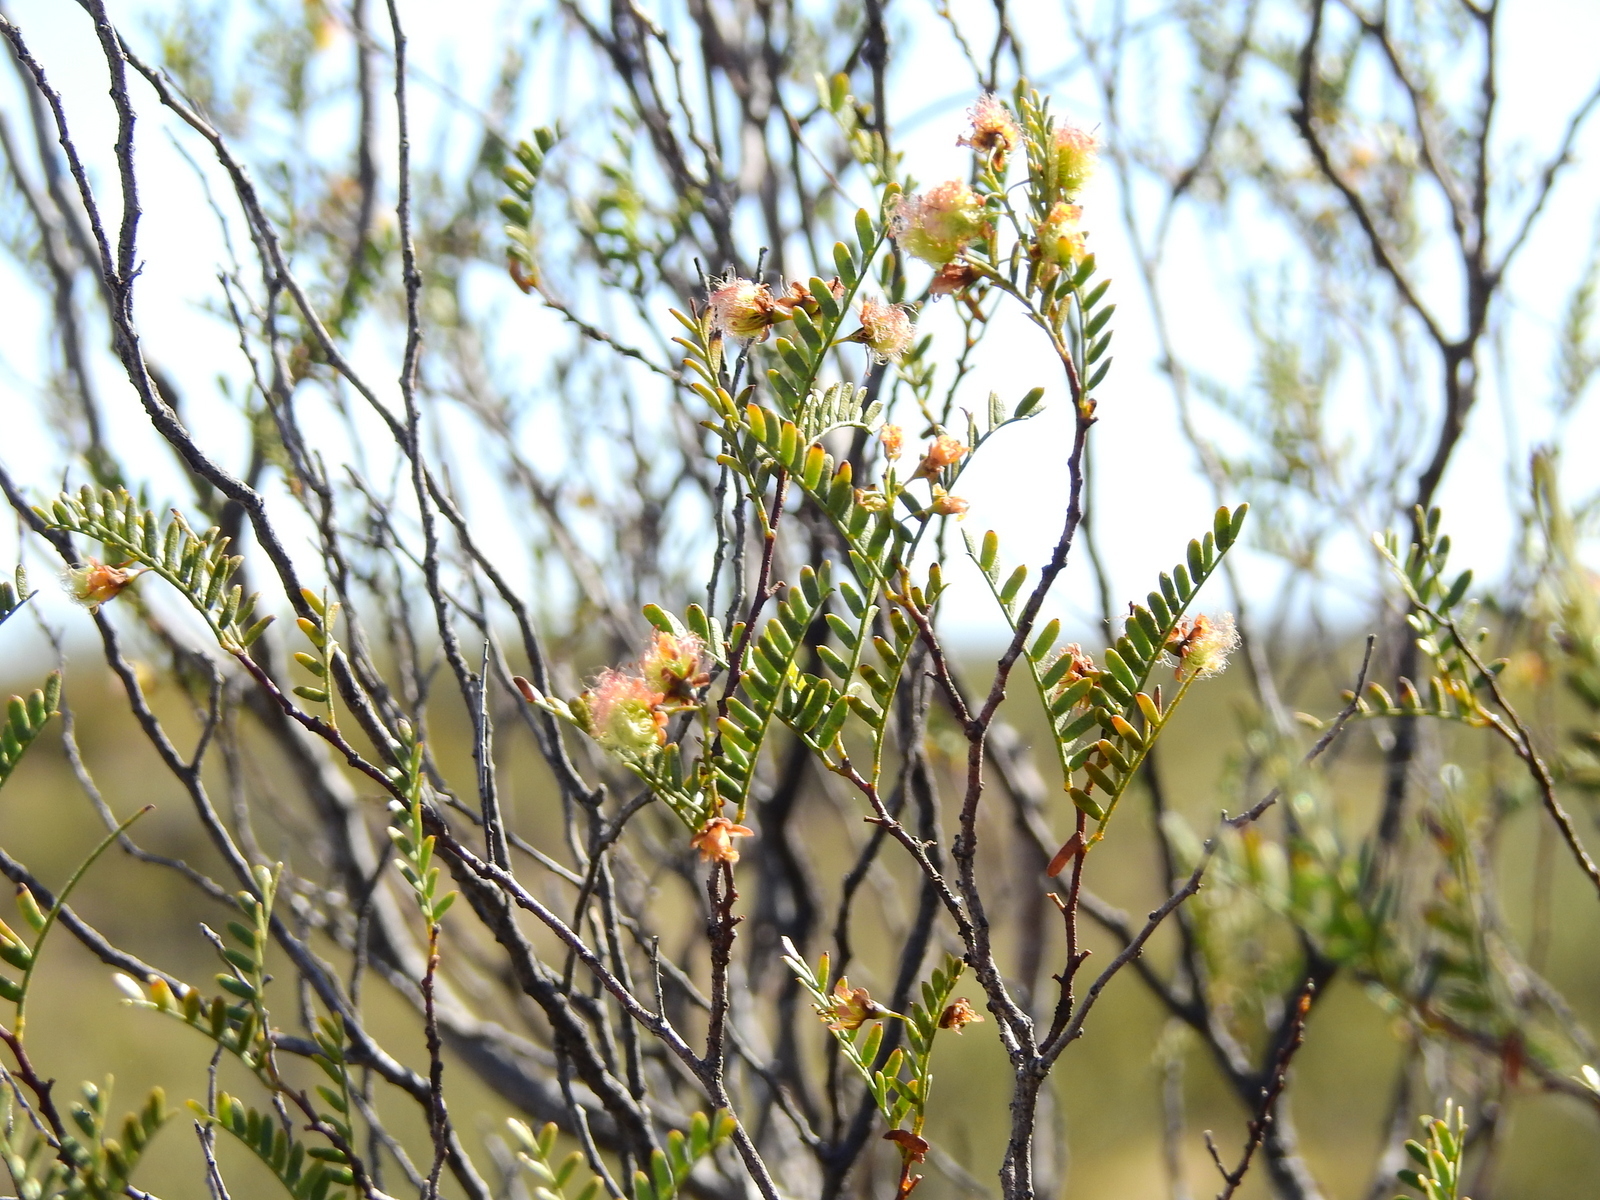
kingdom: Plantae
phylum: Tracheophyta
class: Magnoliopsida
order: Fabales
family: Fabaceae
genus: Zuccagnia
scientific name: Zuccagnia punctata
